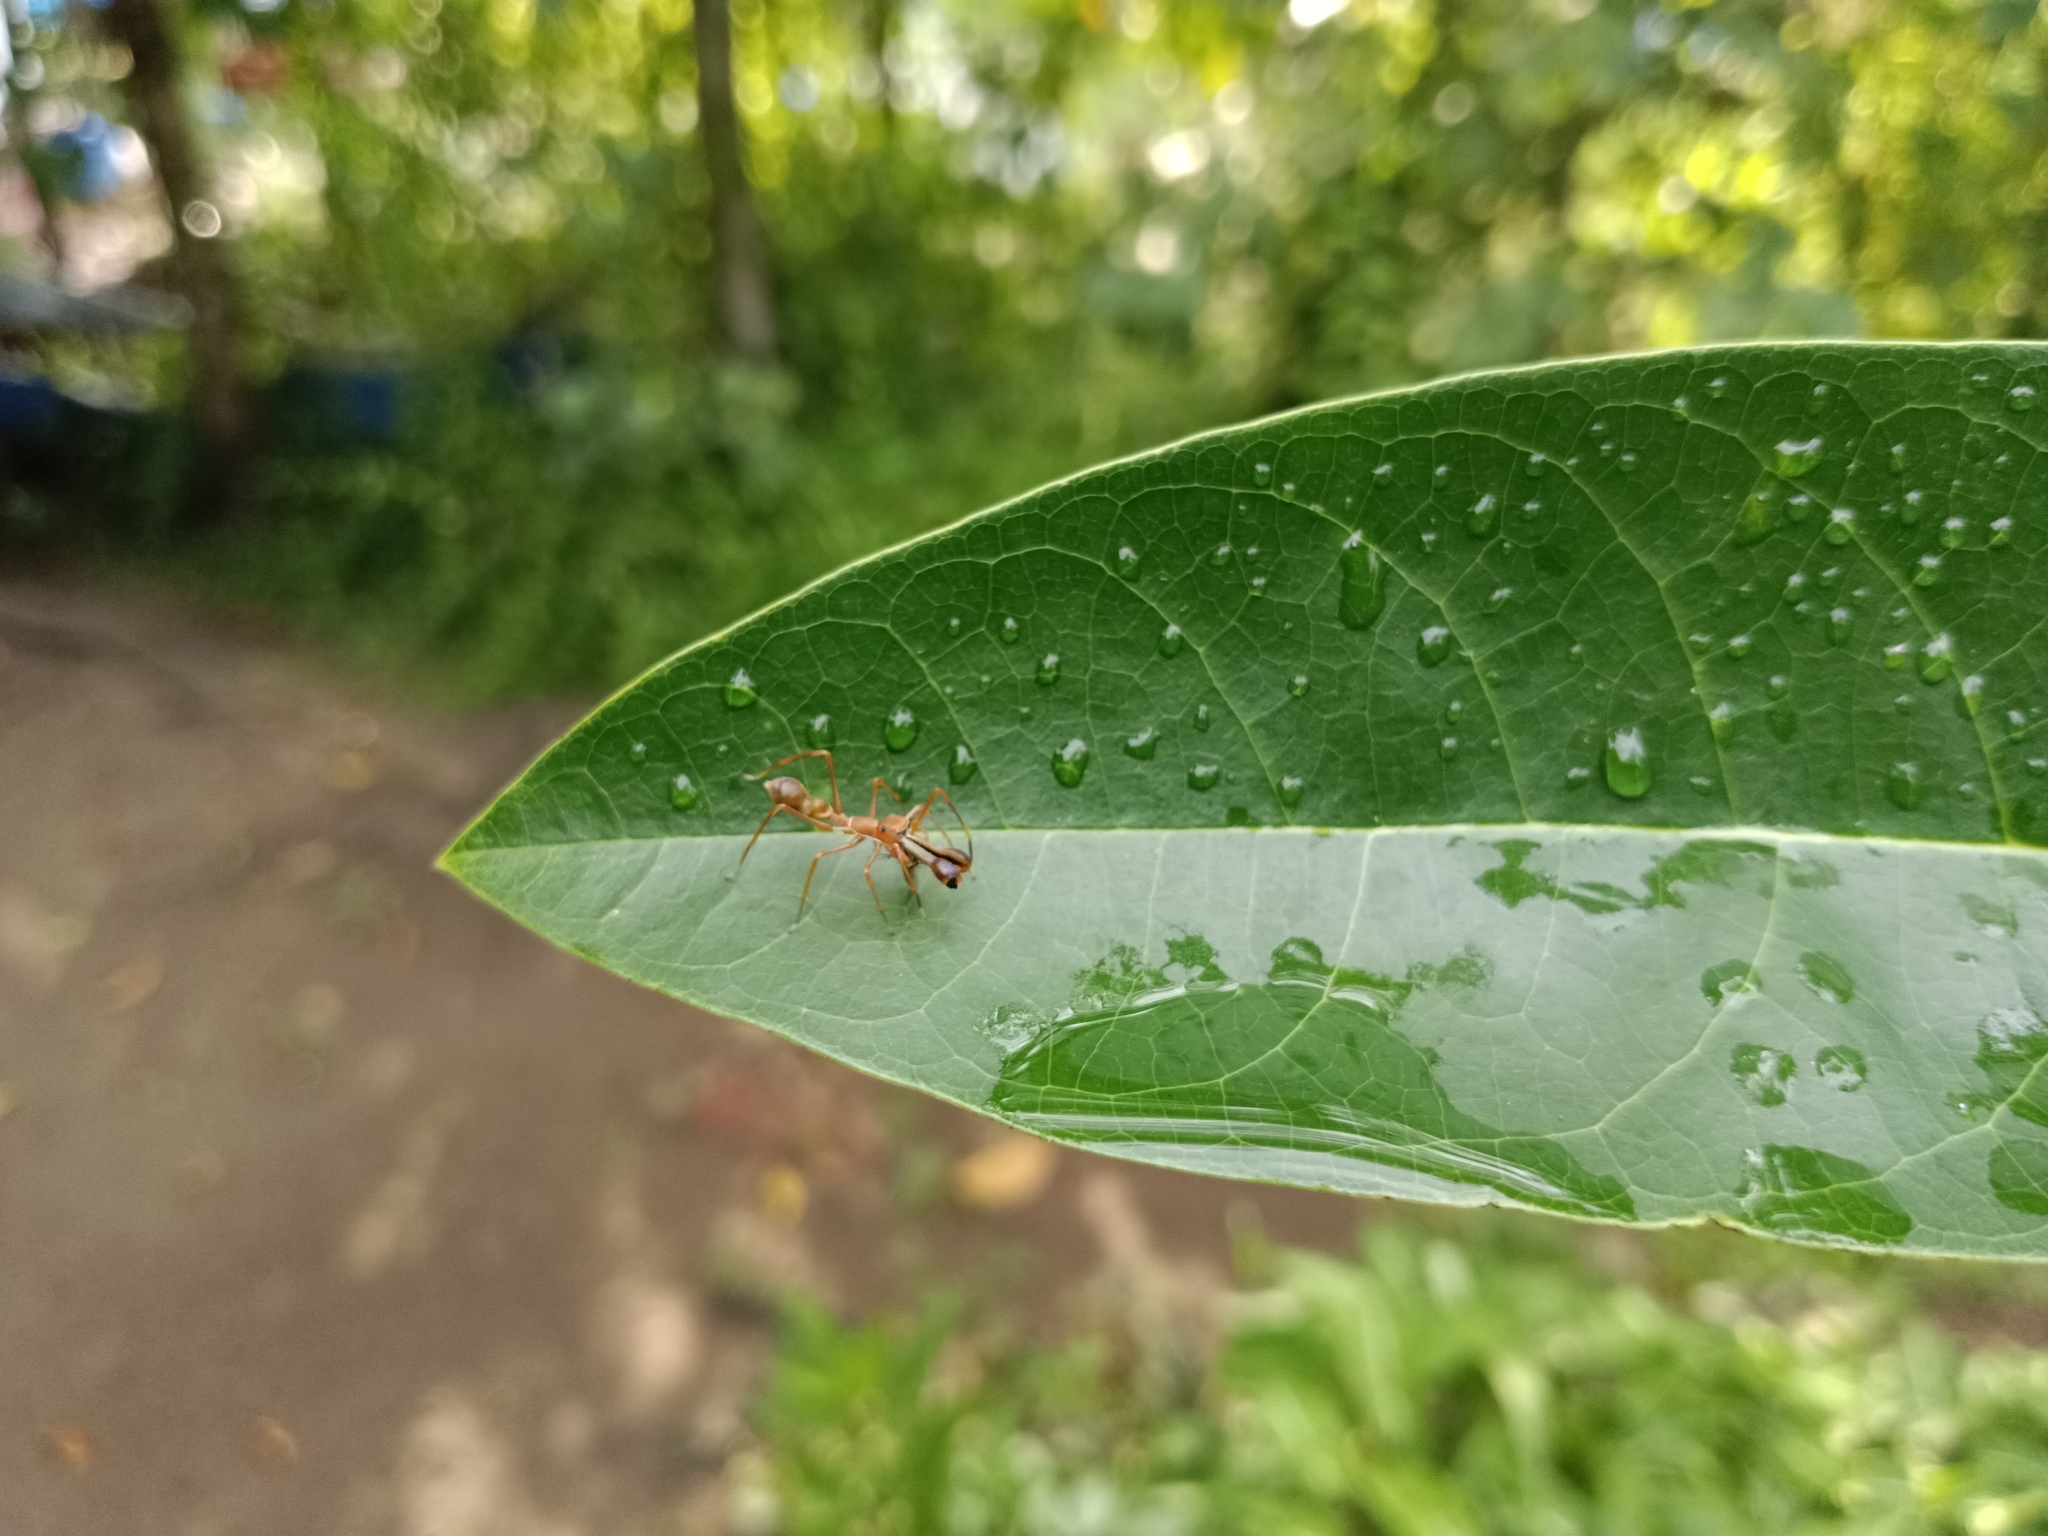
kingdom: Animalia
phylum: Arthropoda
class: Arachnida
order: Araneae
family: Salticidae
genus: Myrmaplata
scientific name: Myrmaplata plataleoides
